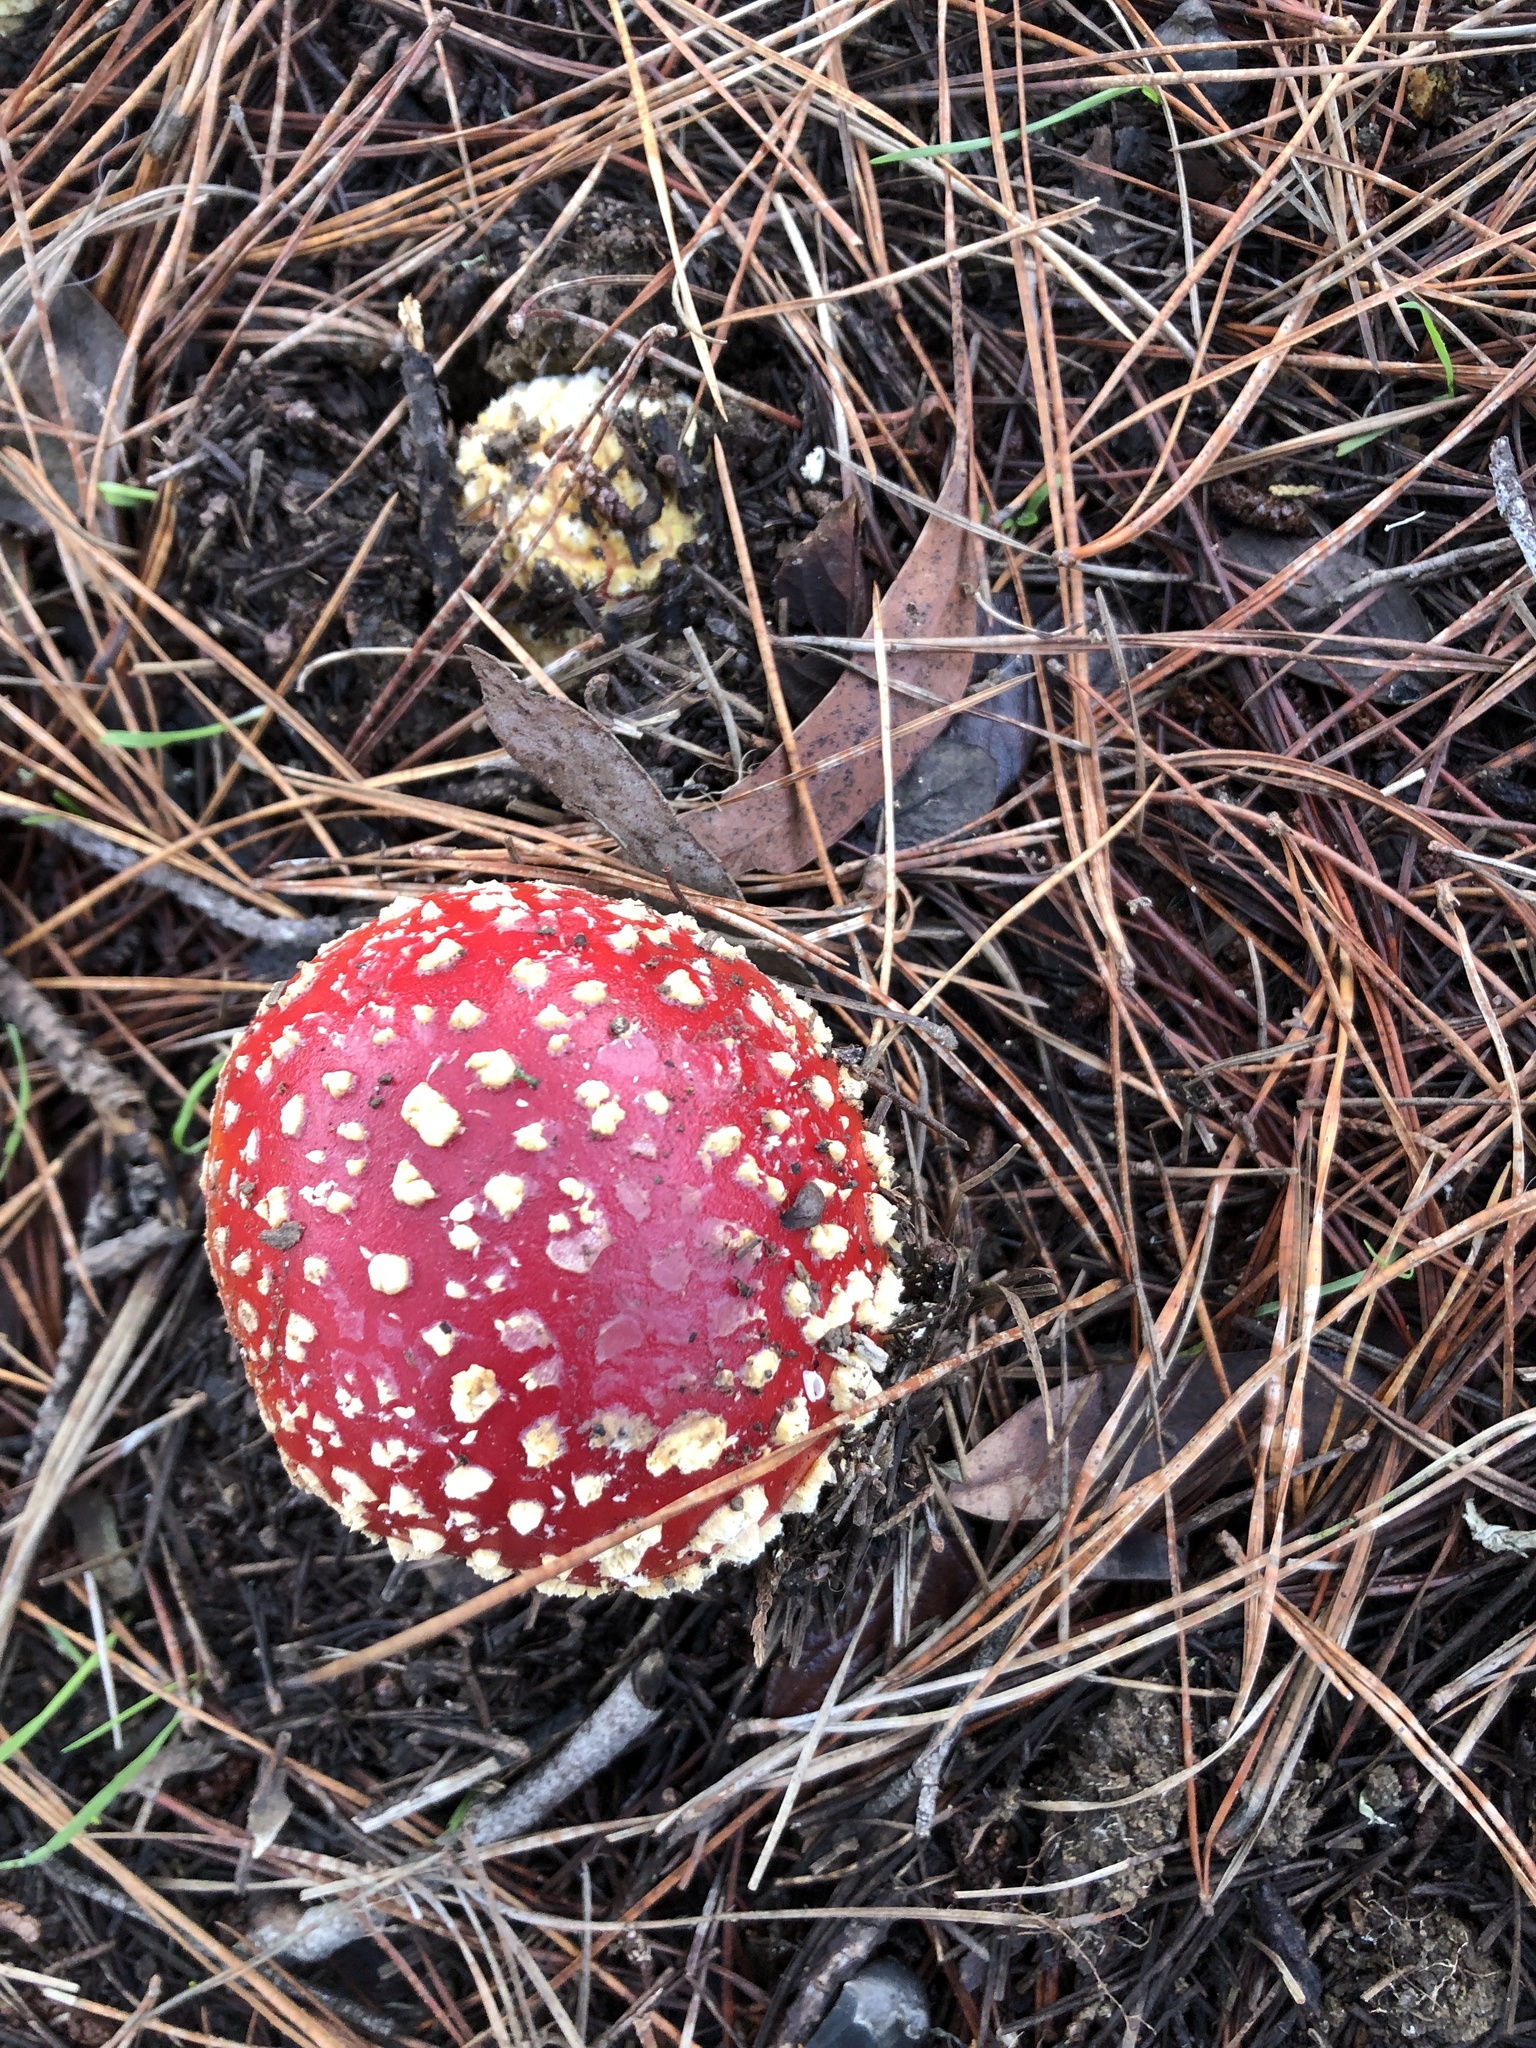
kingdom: Fungi
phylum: Basidiomycota
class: Agaricomycetes
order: Agaricales
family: Amanitaceae
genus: Amanita
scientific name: Amanita muscaria
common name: Fly agaric
